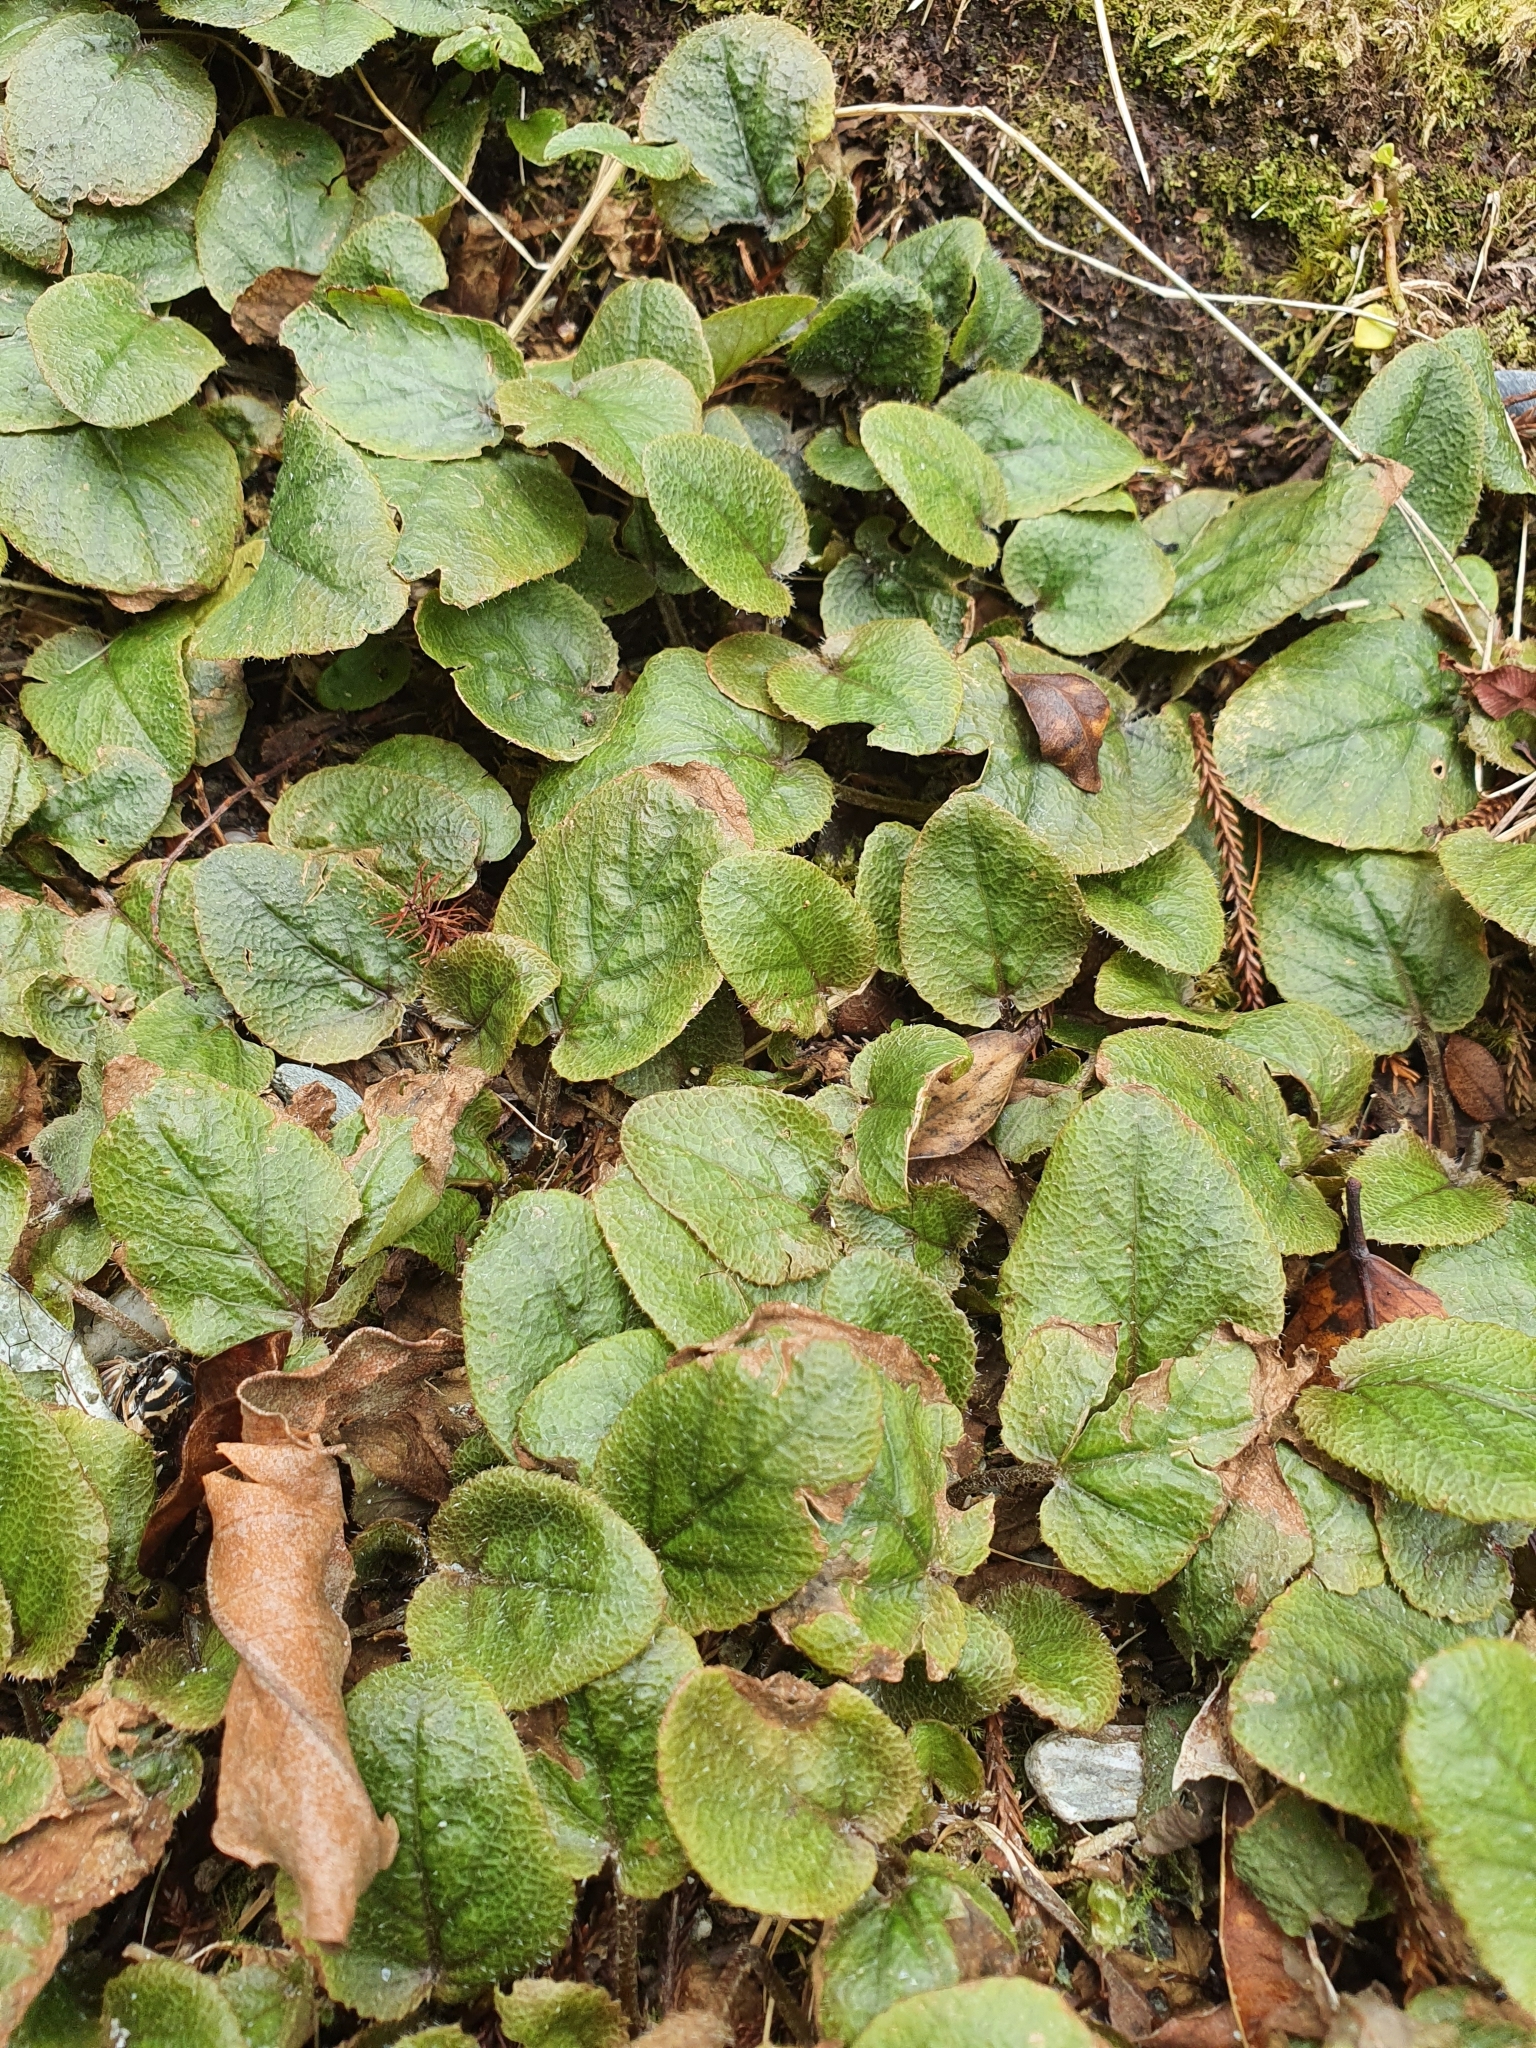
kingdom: Plantae
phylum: Tracheophyta
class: Magnoliopsida
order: Gunnerales
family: Gunneraceae
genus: Gunnera
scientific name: Gunnera prorepens
